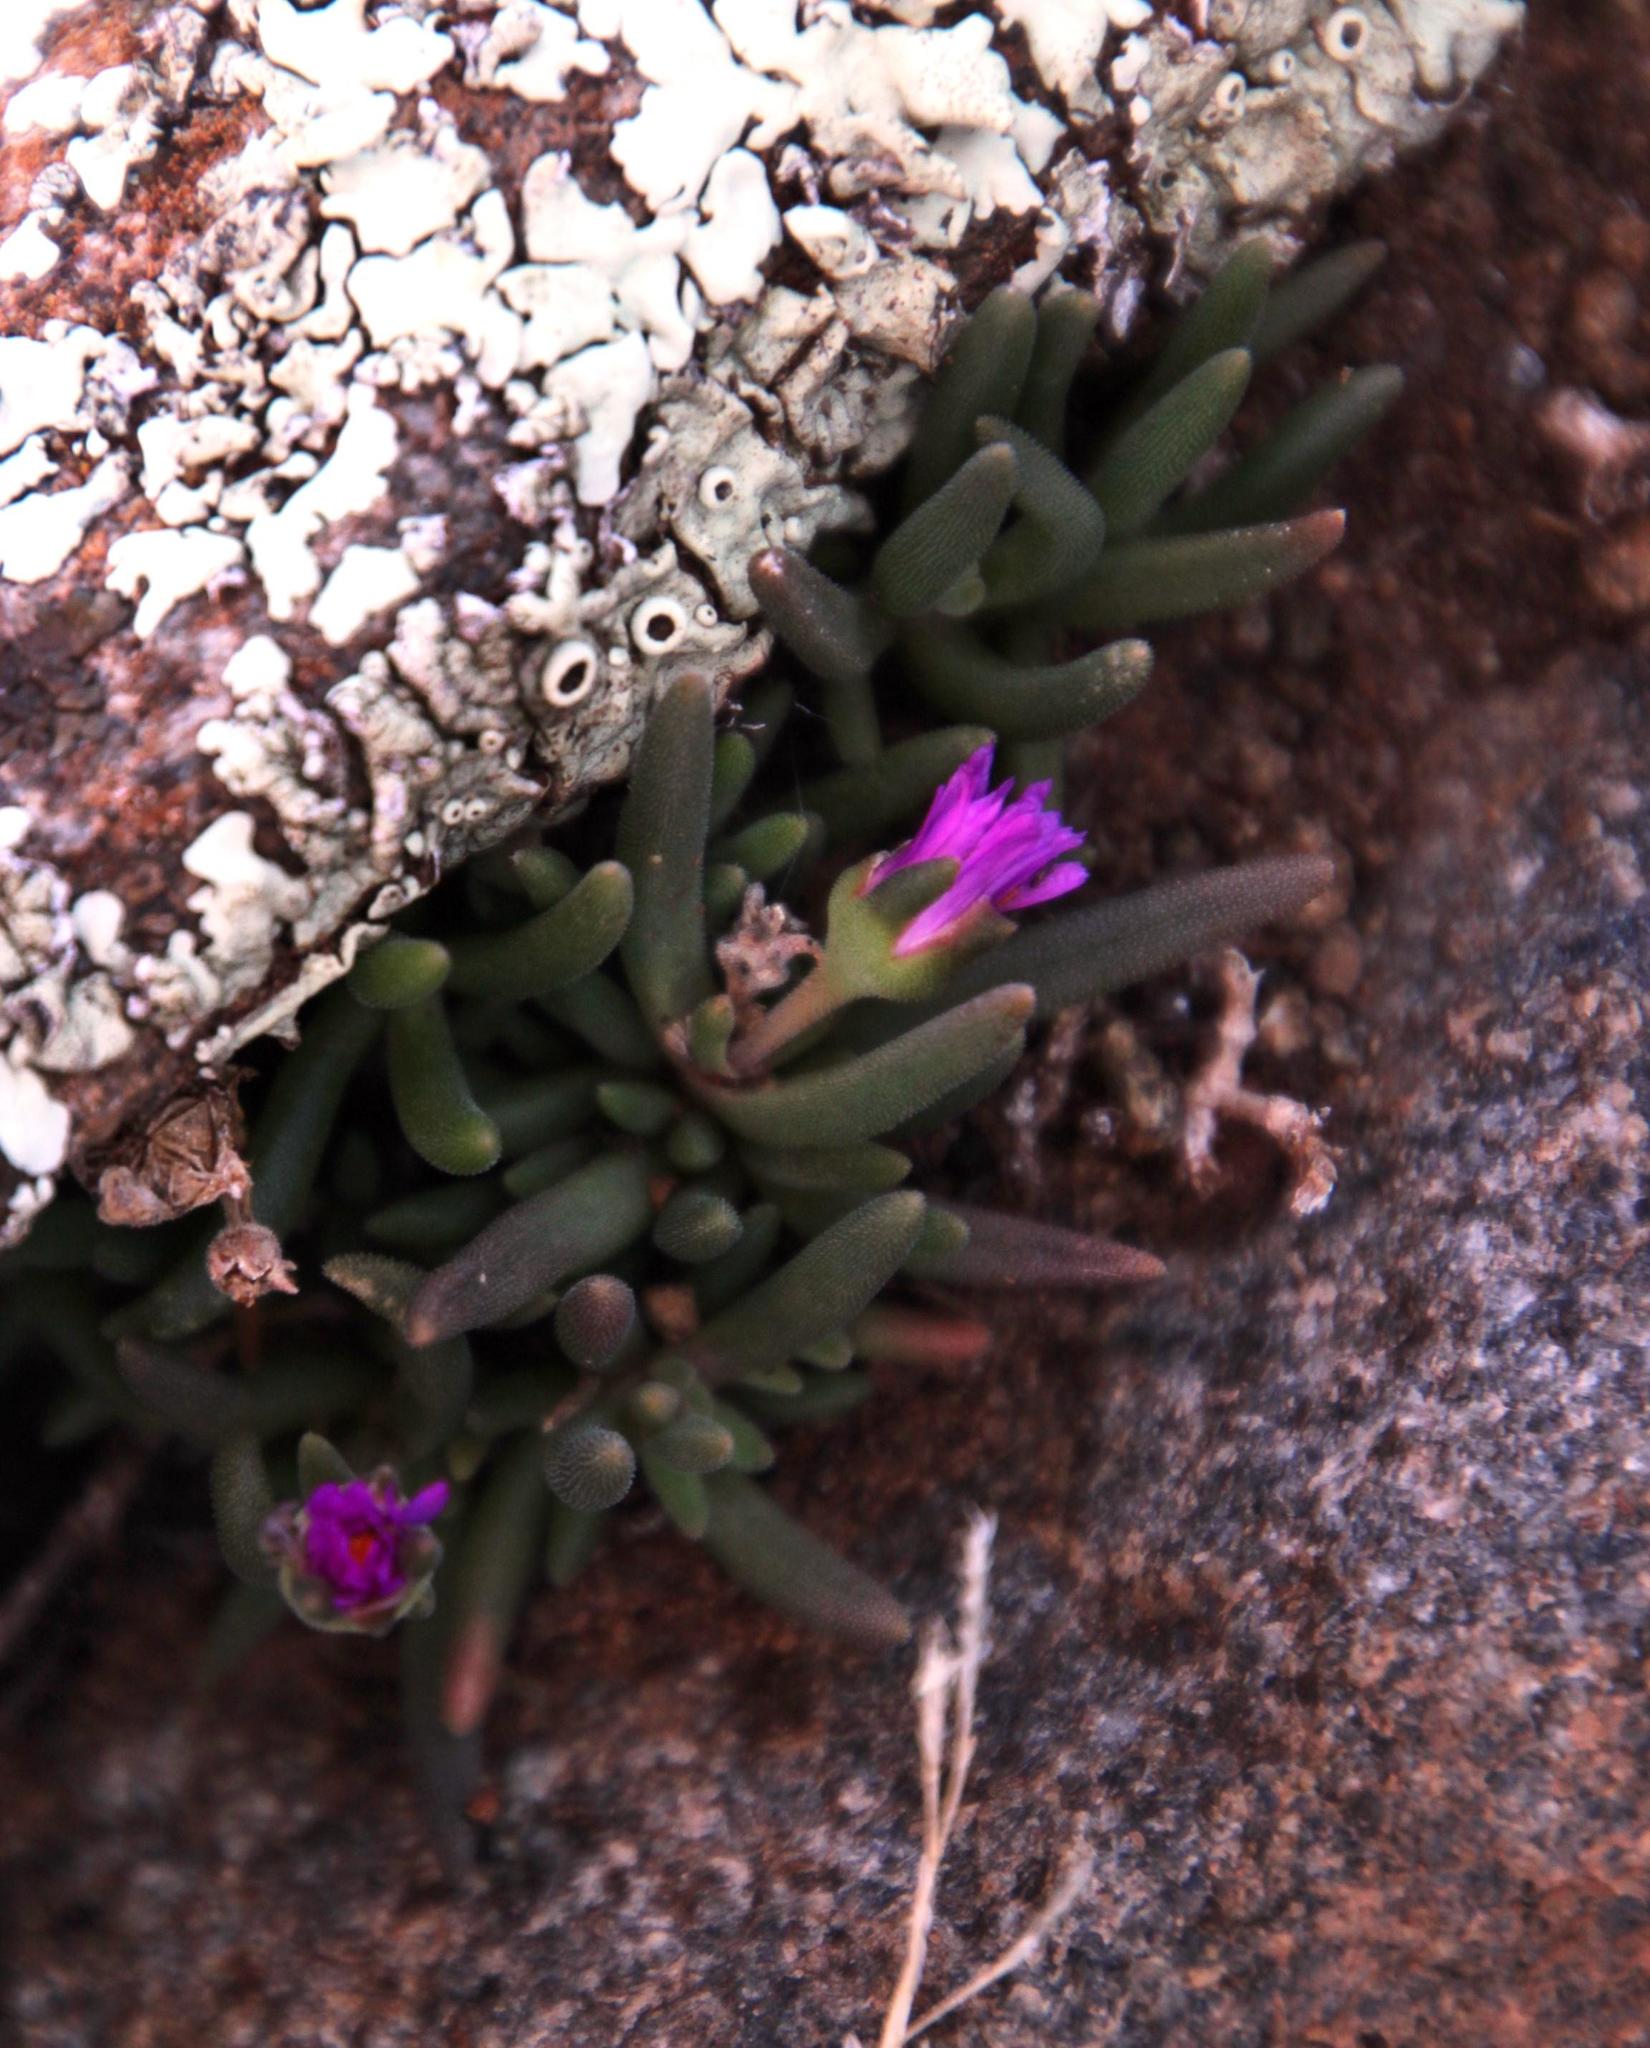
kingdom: Plantae
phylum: Tracheophyta
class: Magnoliopsida
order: Caryophyllales
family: Aizoaceae
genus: Delosperma
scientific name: Delosperma brevisepalum
